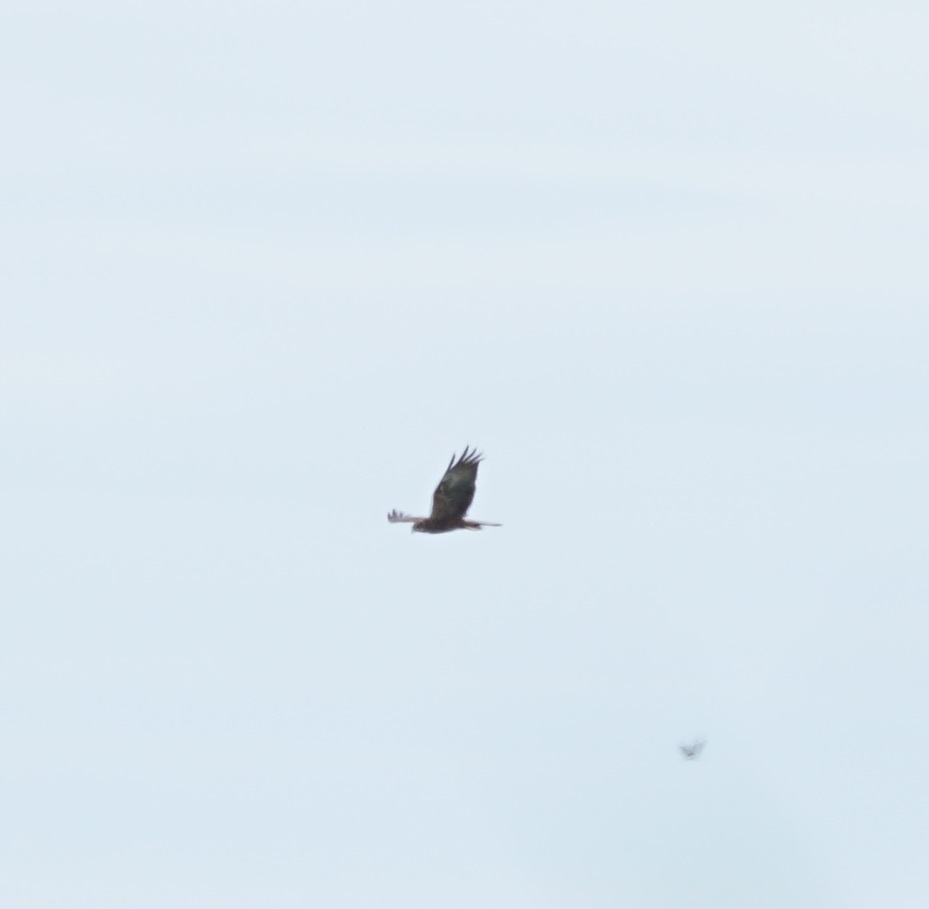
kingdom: Animalia
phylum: Chordata
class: Aves
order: Accipitriformes
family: Accipitridae
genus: Circus
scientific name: Circus aeruginosus
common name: Western marsh harrier
